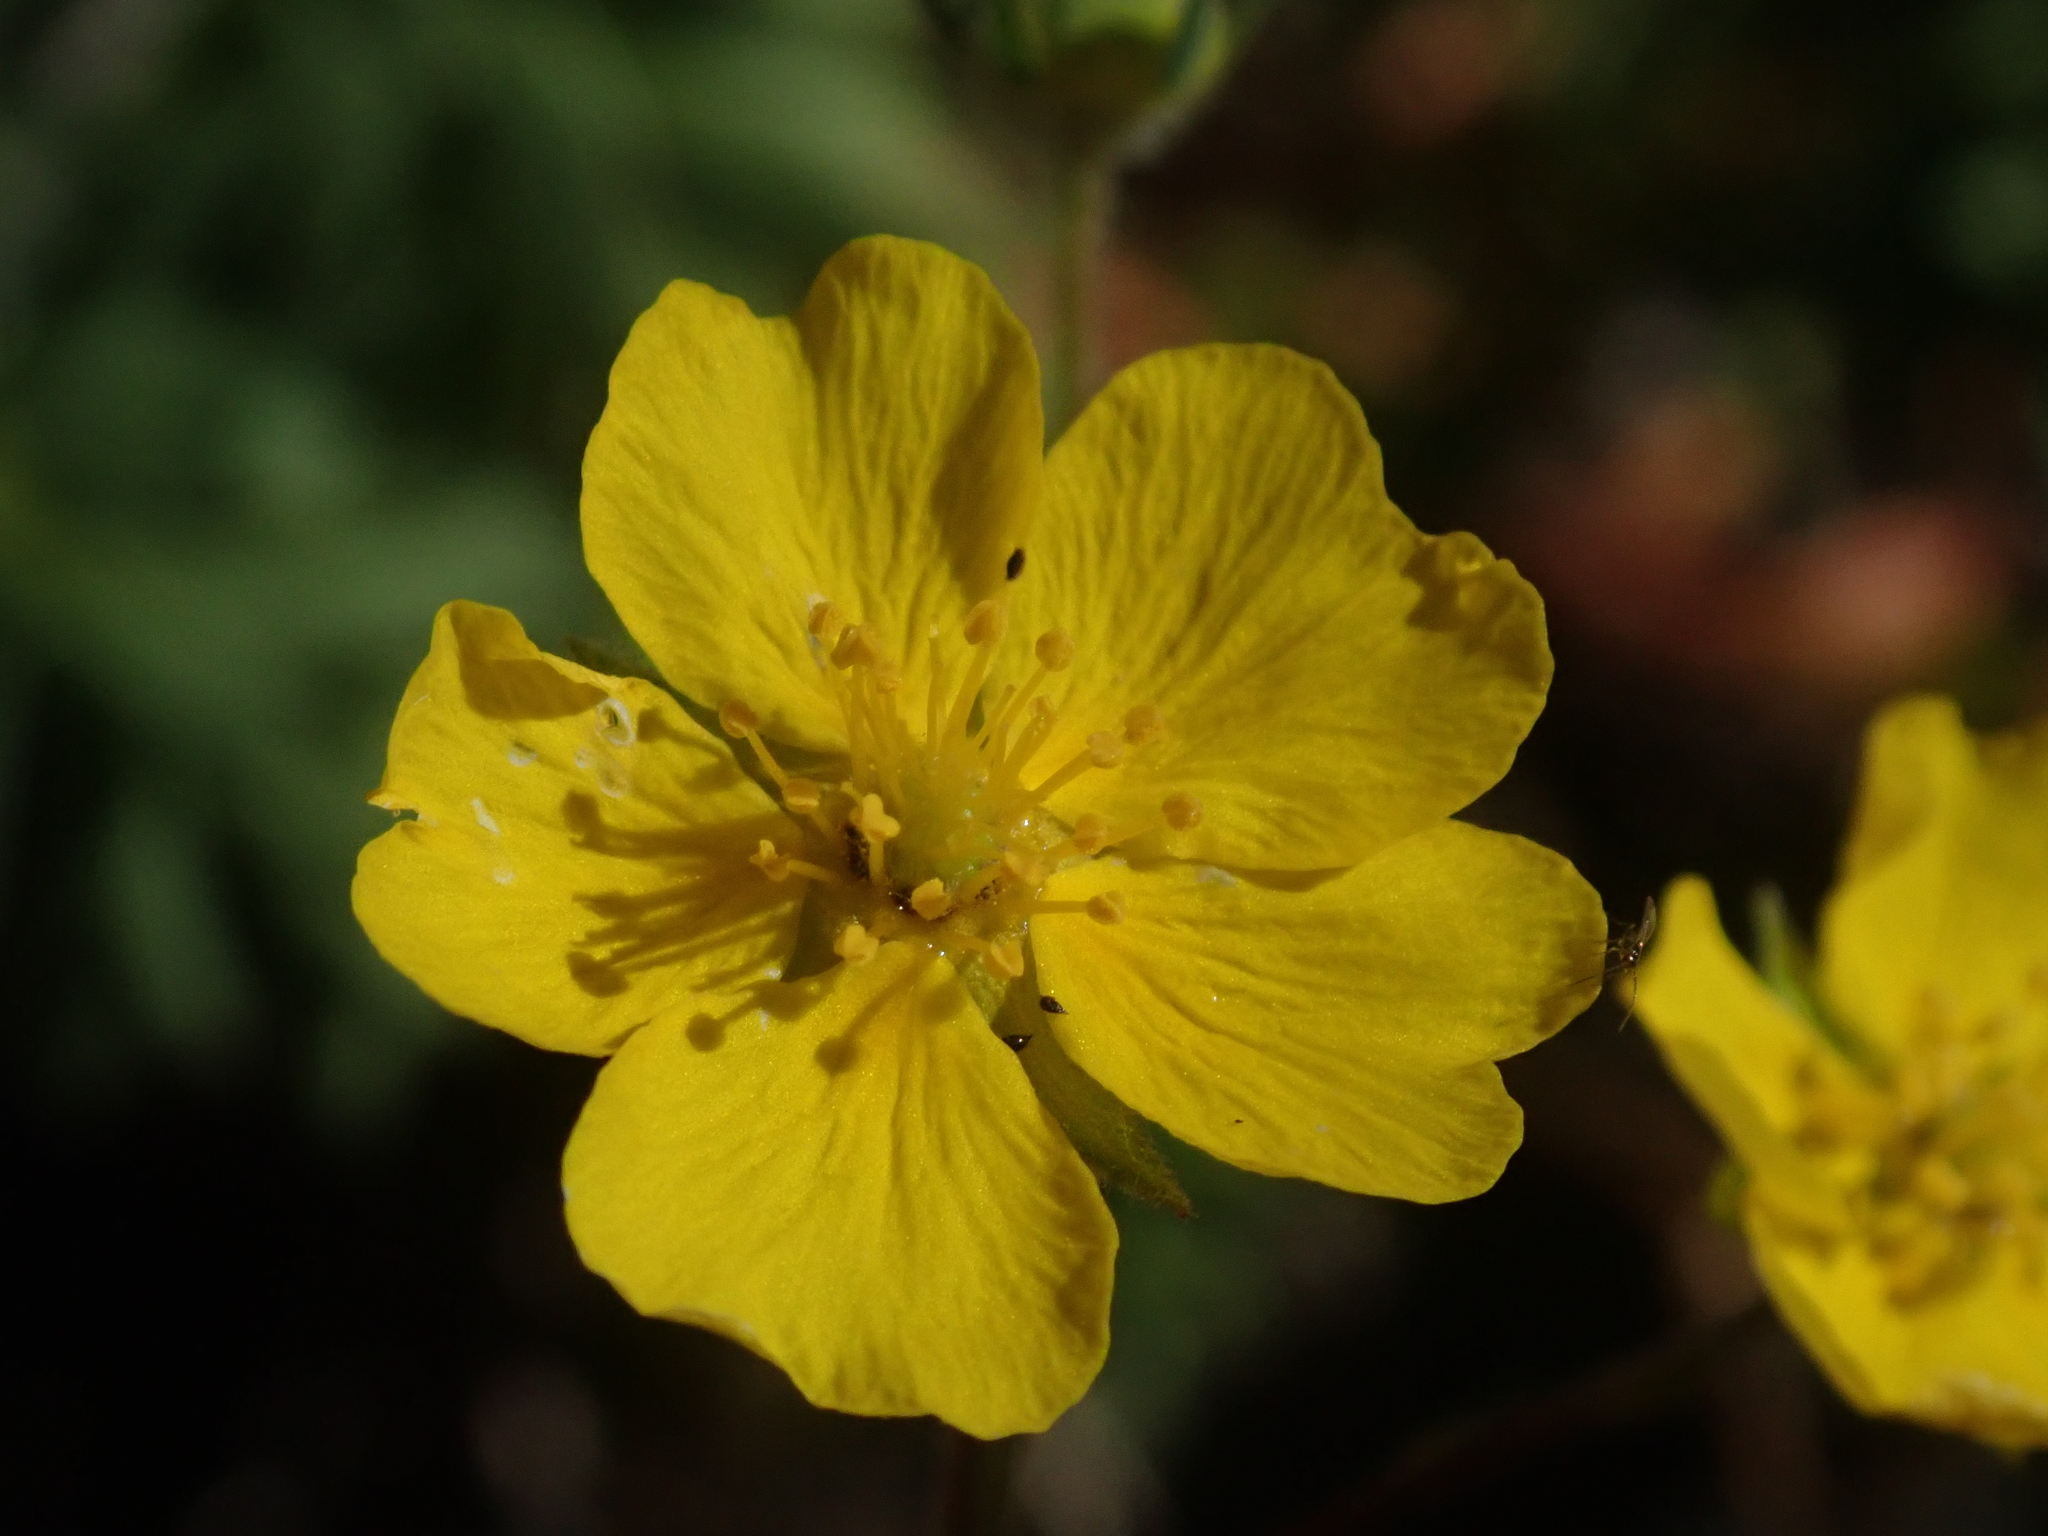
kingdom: Plantae
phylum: Tracheophyta
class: Magnoliopsida
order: Rosales
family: Rosaceae
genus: Potentilla
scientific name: Potentilla glaucophylla
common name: Blue-leaved cinquefoil
